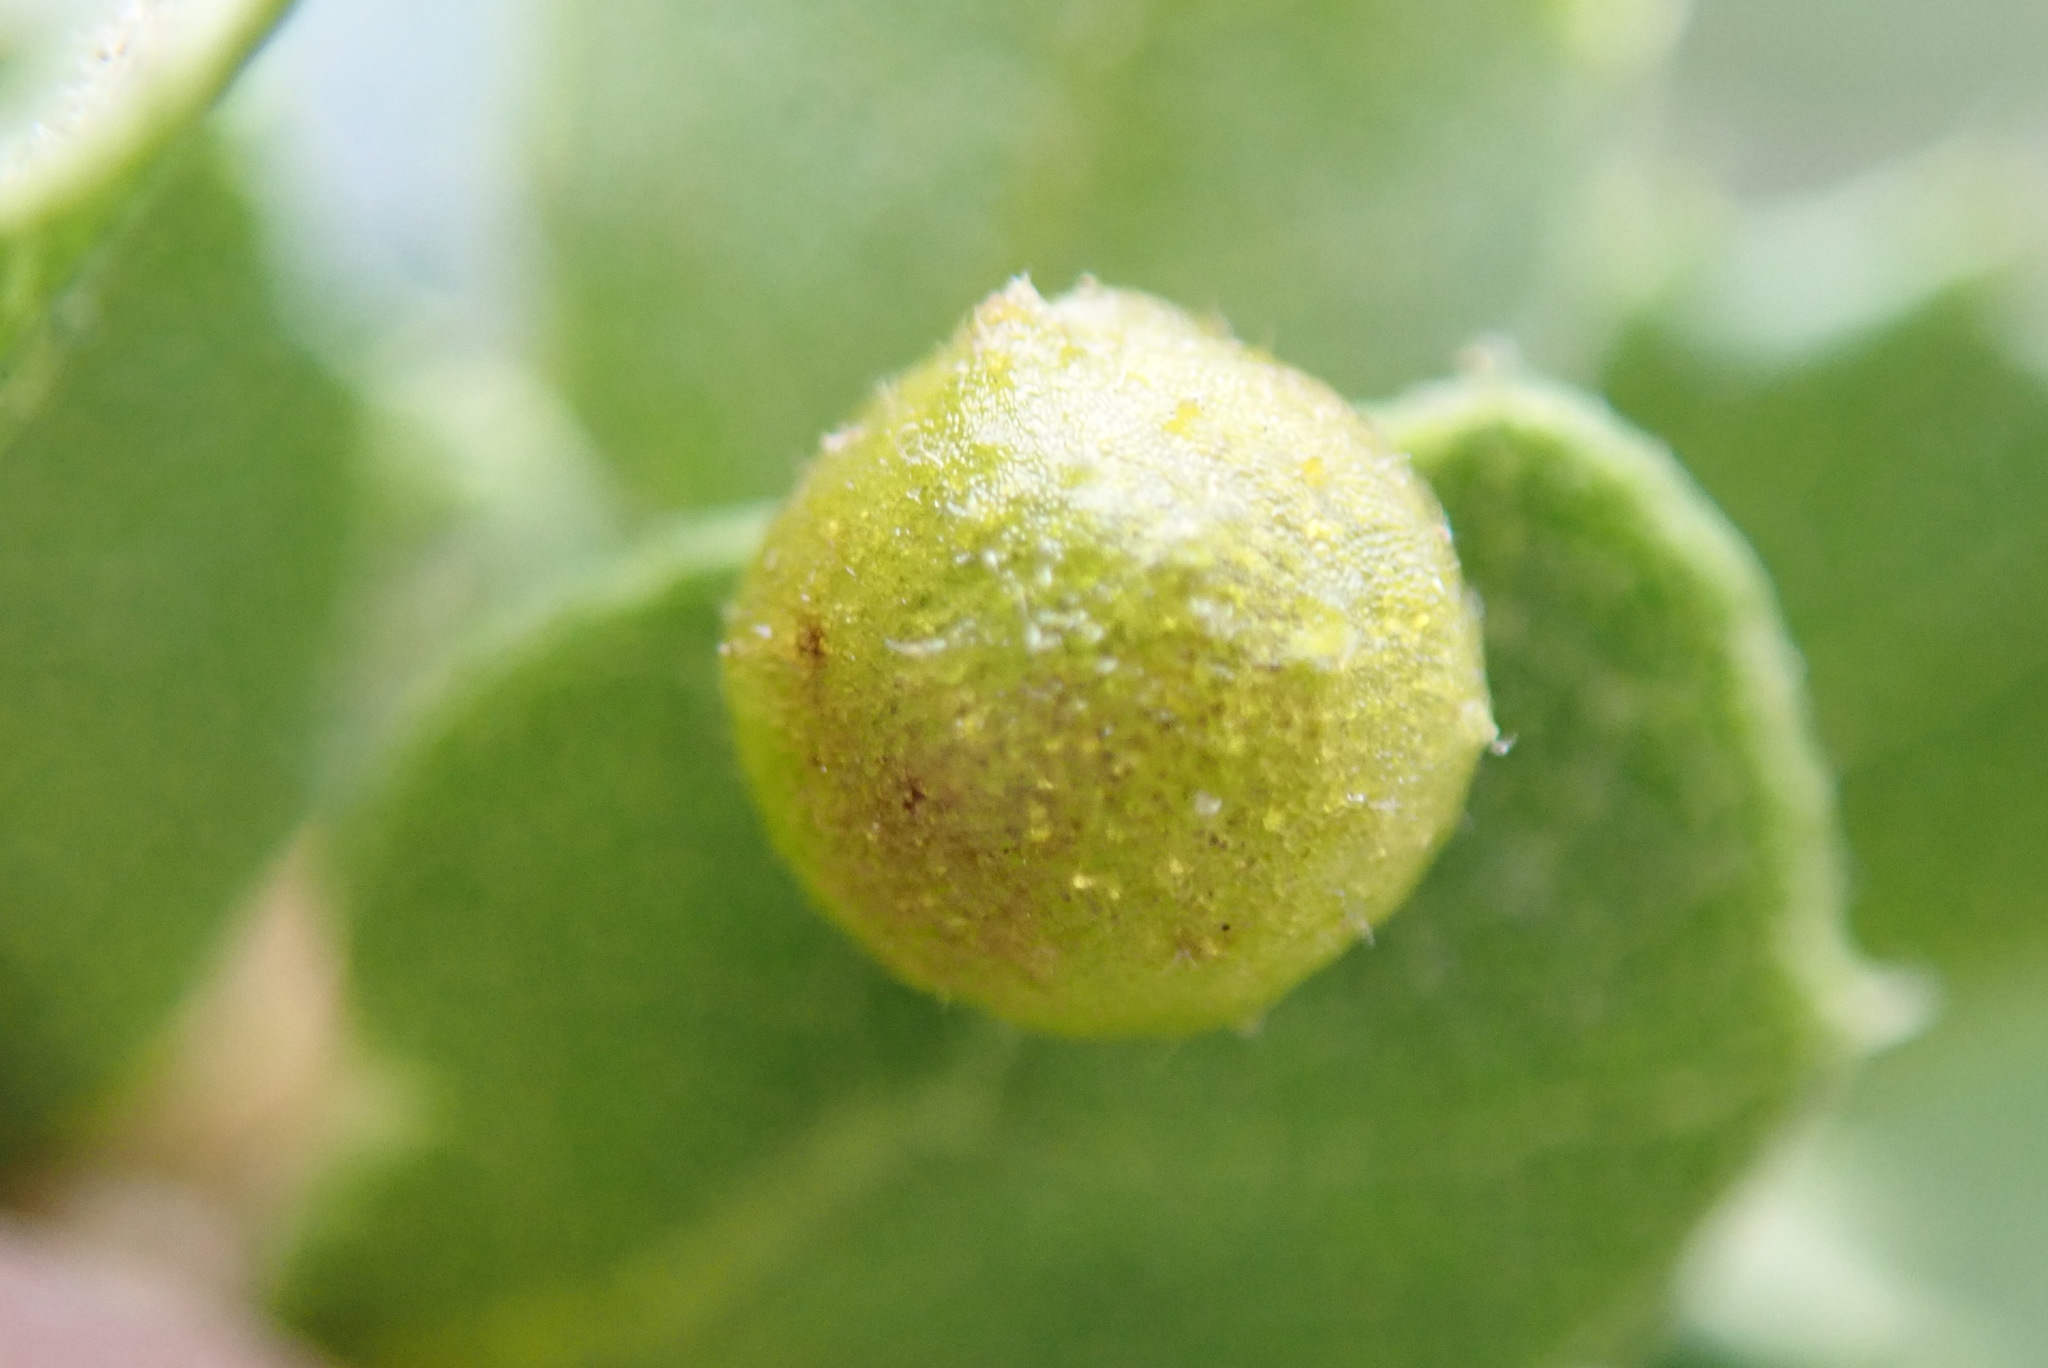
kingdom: Animalia
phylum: Arthropoda
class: Insecta
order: Hymenoptera
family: Cynipidae
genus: Andricus
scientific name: Andricus
